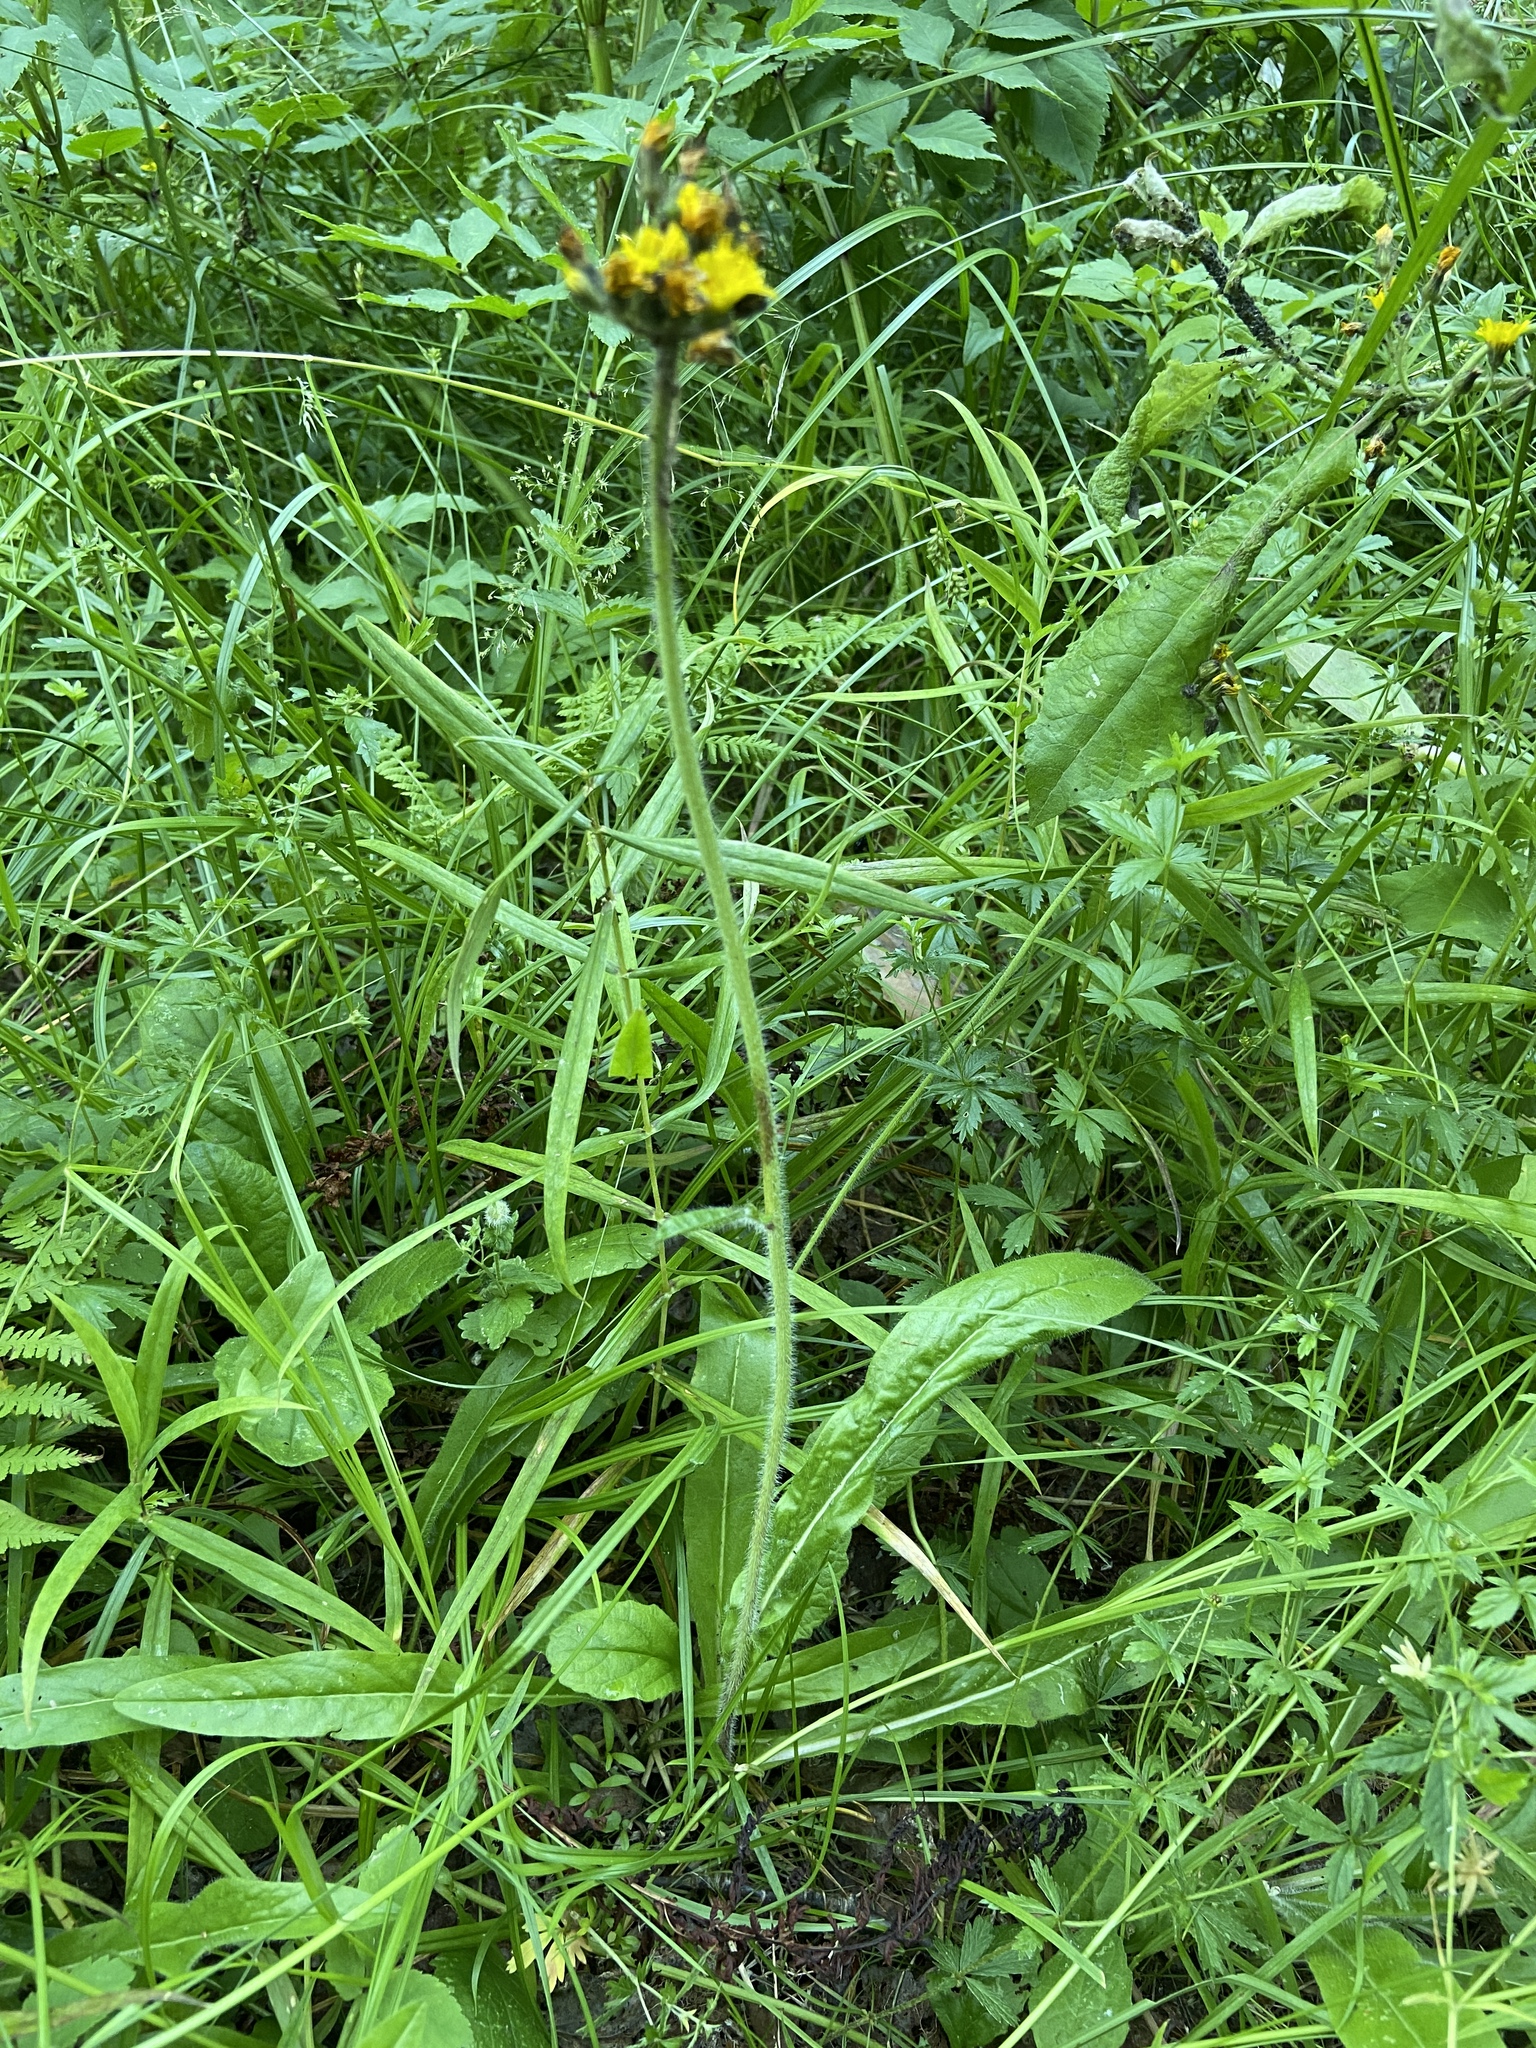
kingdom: Plantae
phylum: Tracheophyta
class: Magnoliopsida
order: Asterales
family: Asteraceae
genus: Pilosella
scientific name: Pilosella onegensis
